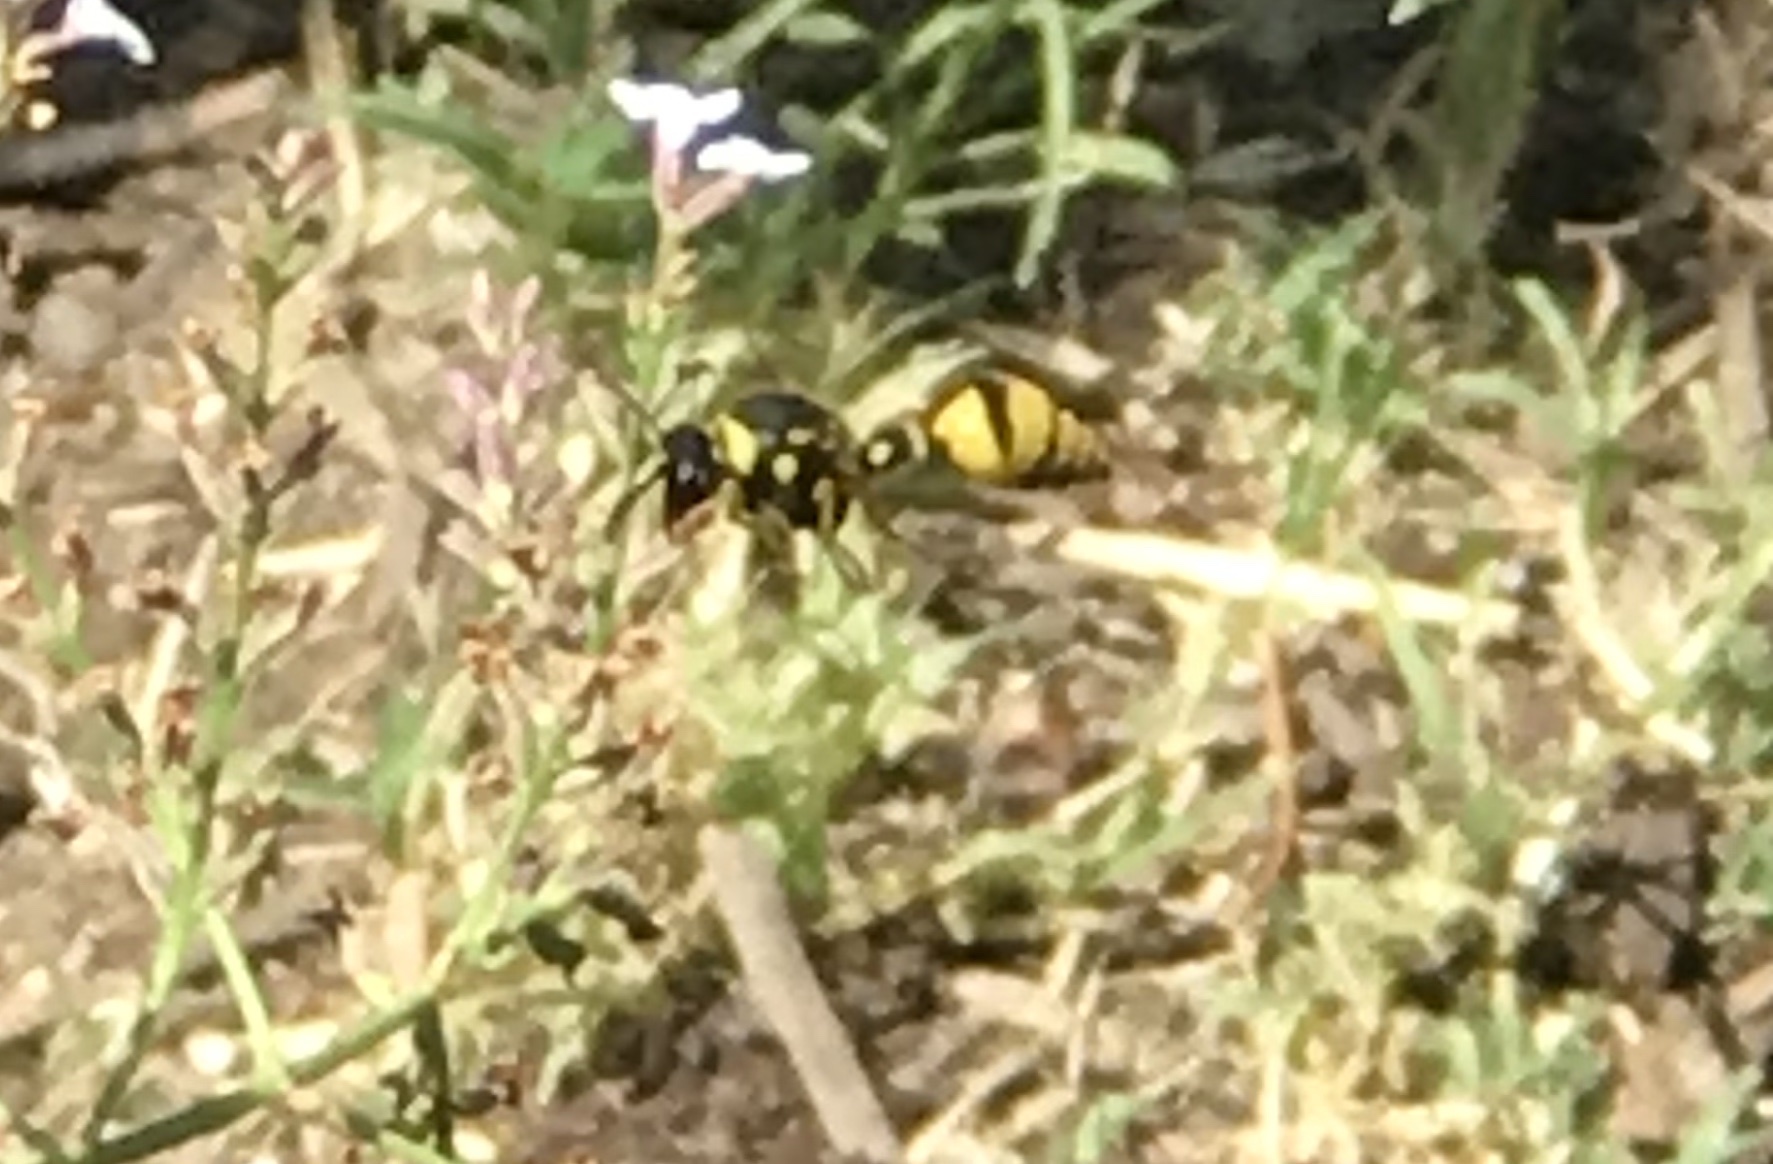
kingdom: Animalia
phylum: Arthropoda
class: Insecta
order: Hymenoptera
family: Vespidae
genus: Eumenes
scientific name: Eumenes crucifera
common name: Cross potter wasp
